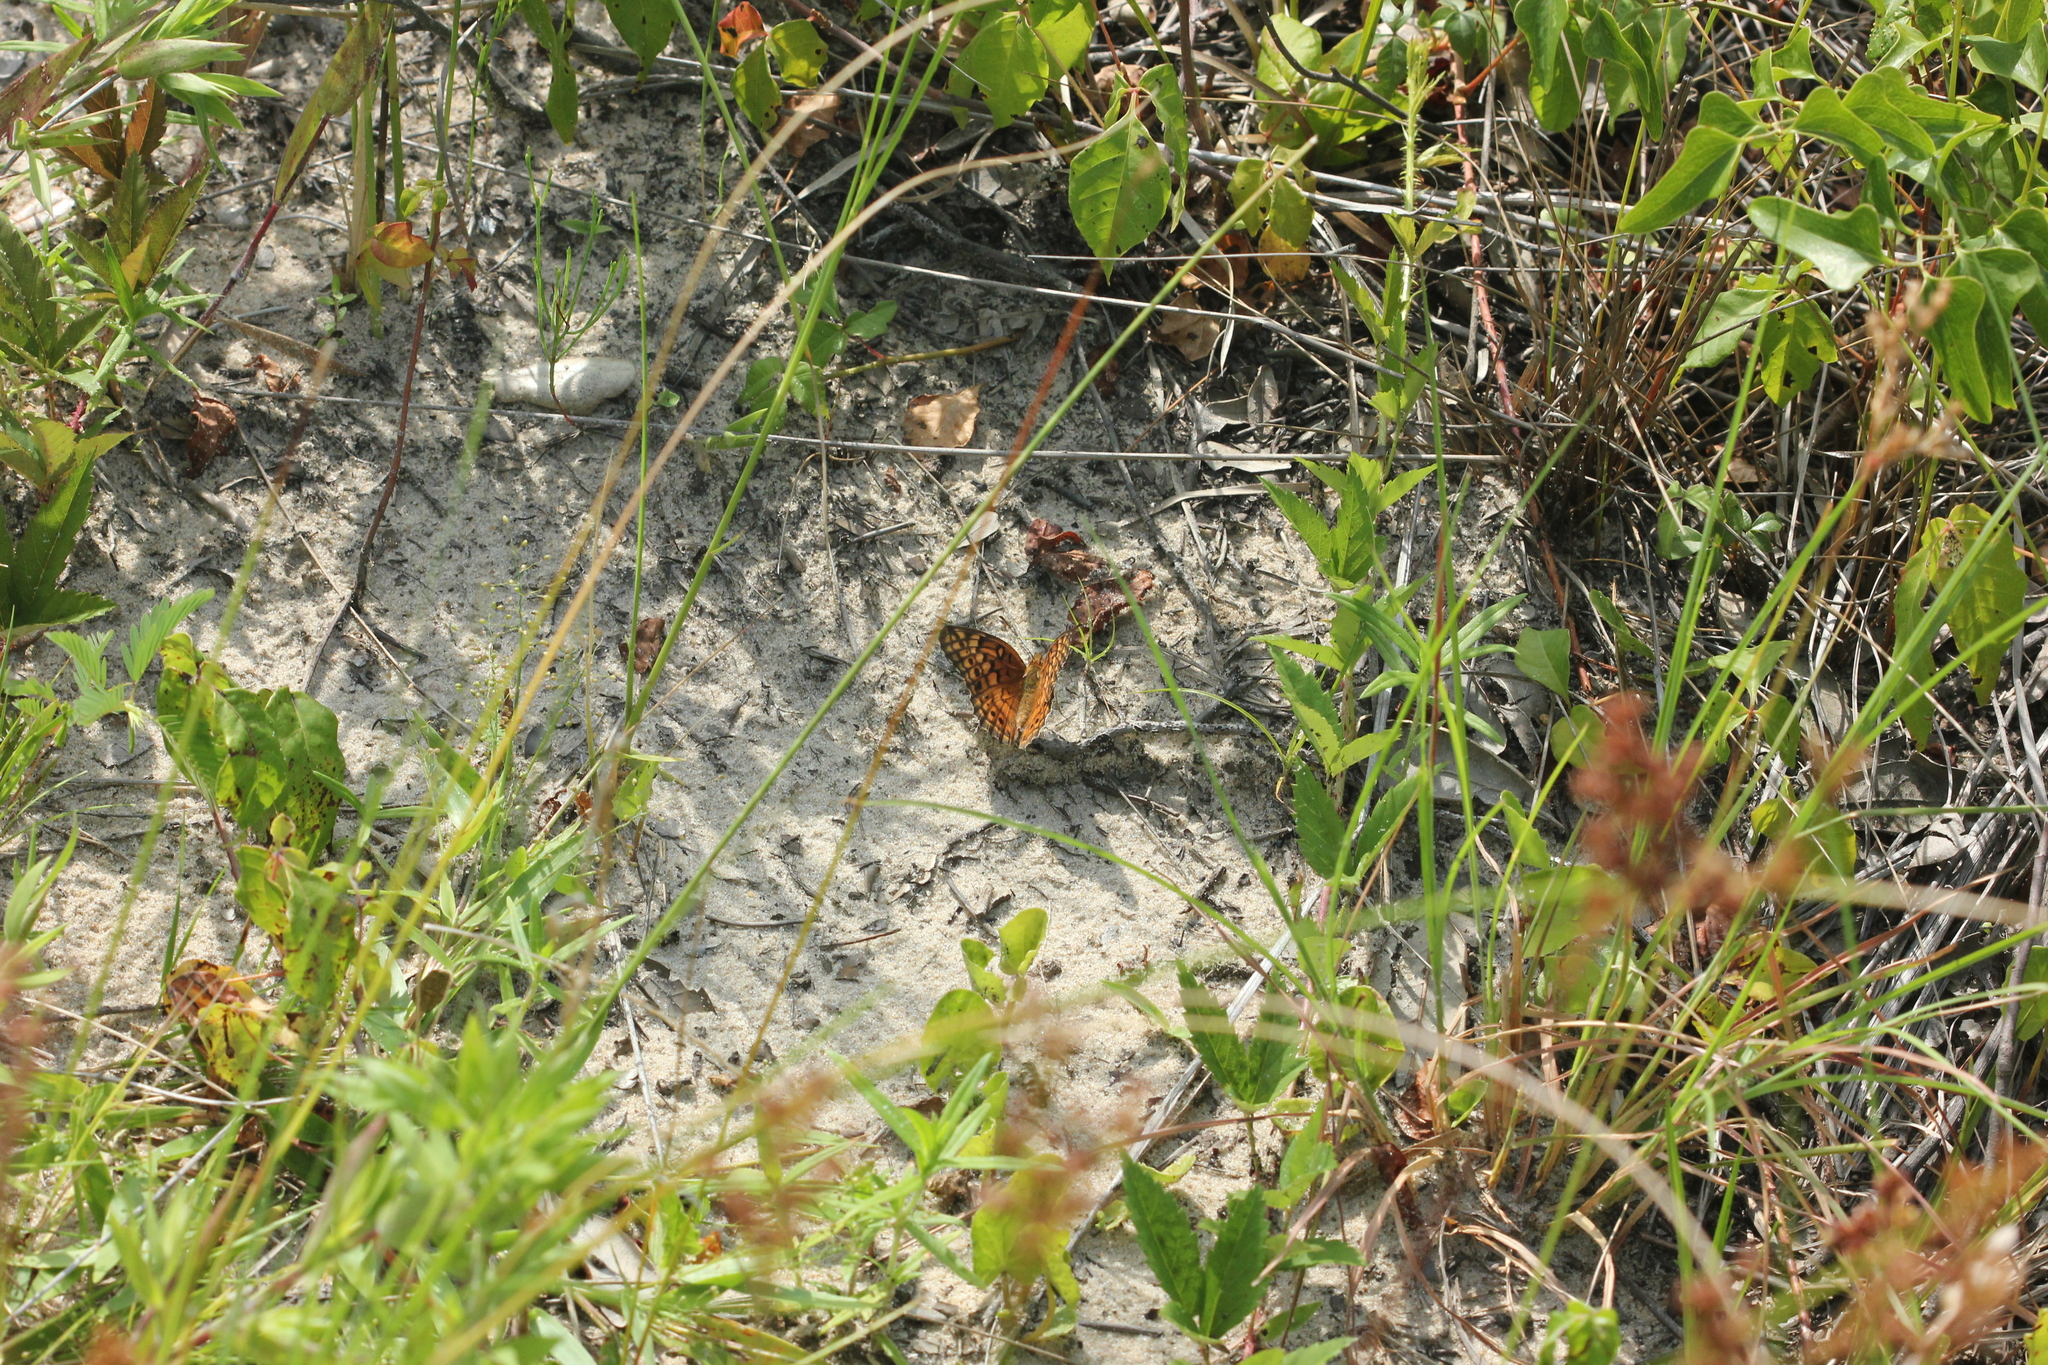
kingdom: Animalia
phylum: Arthropoda
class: Insecta
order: Lepidoptera
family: Nymphalidae
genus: Euptoieta
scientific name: Euptoieta claudia
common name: Variegated fritillary
